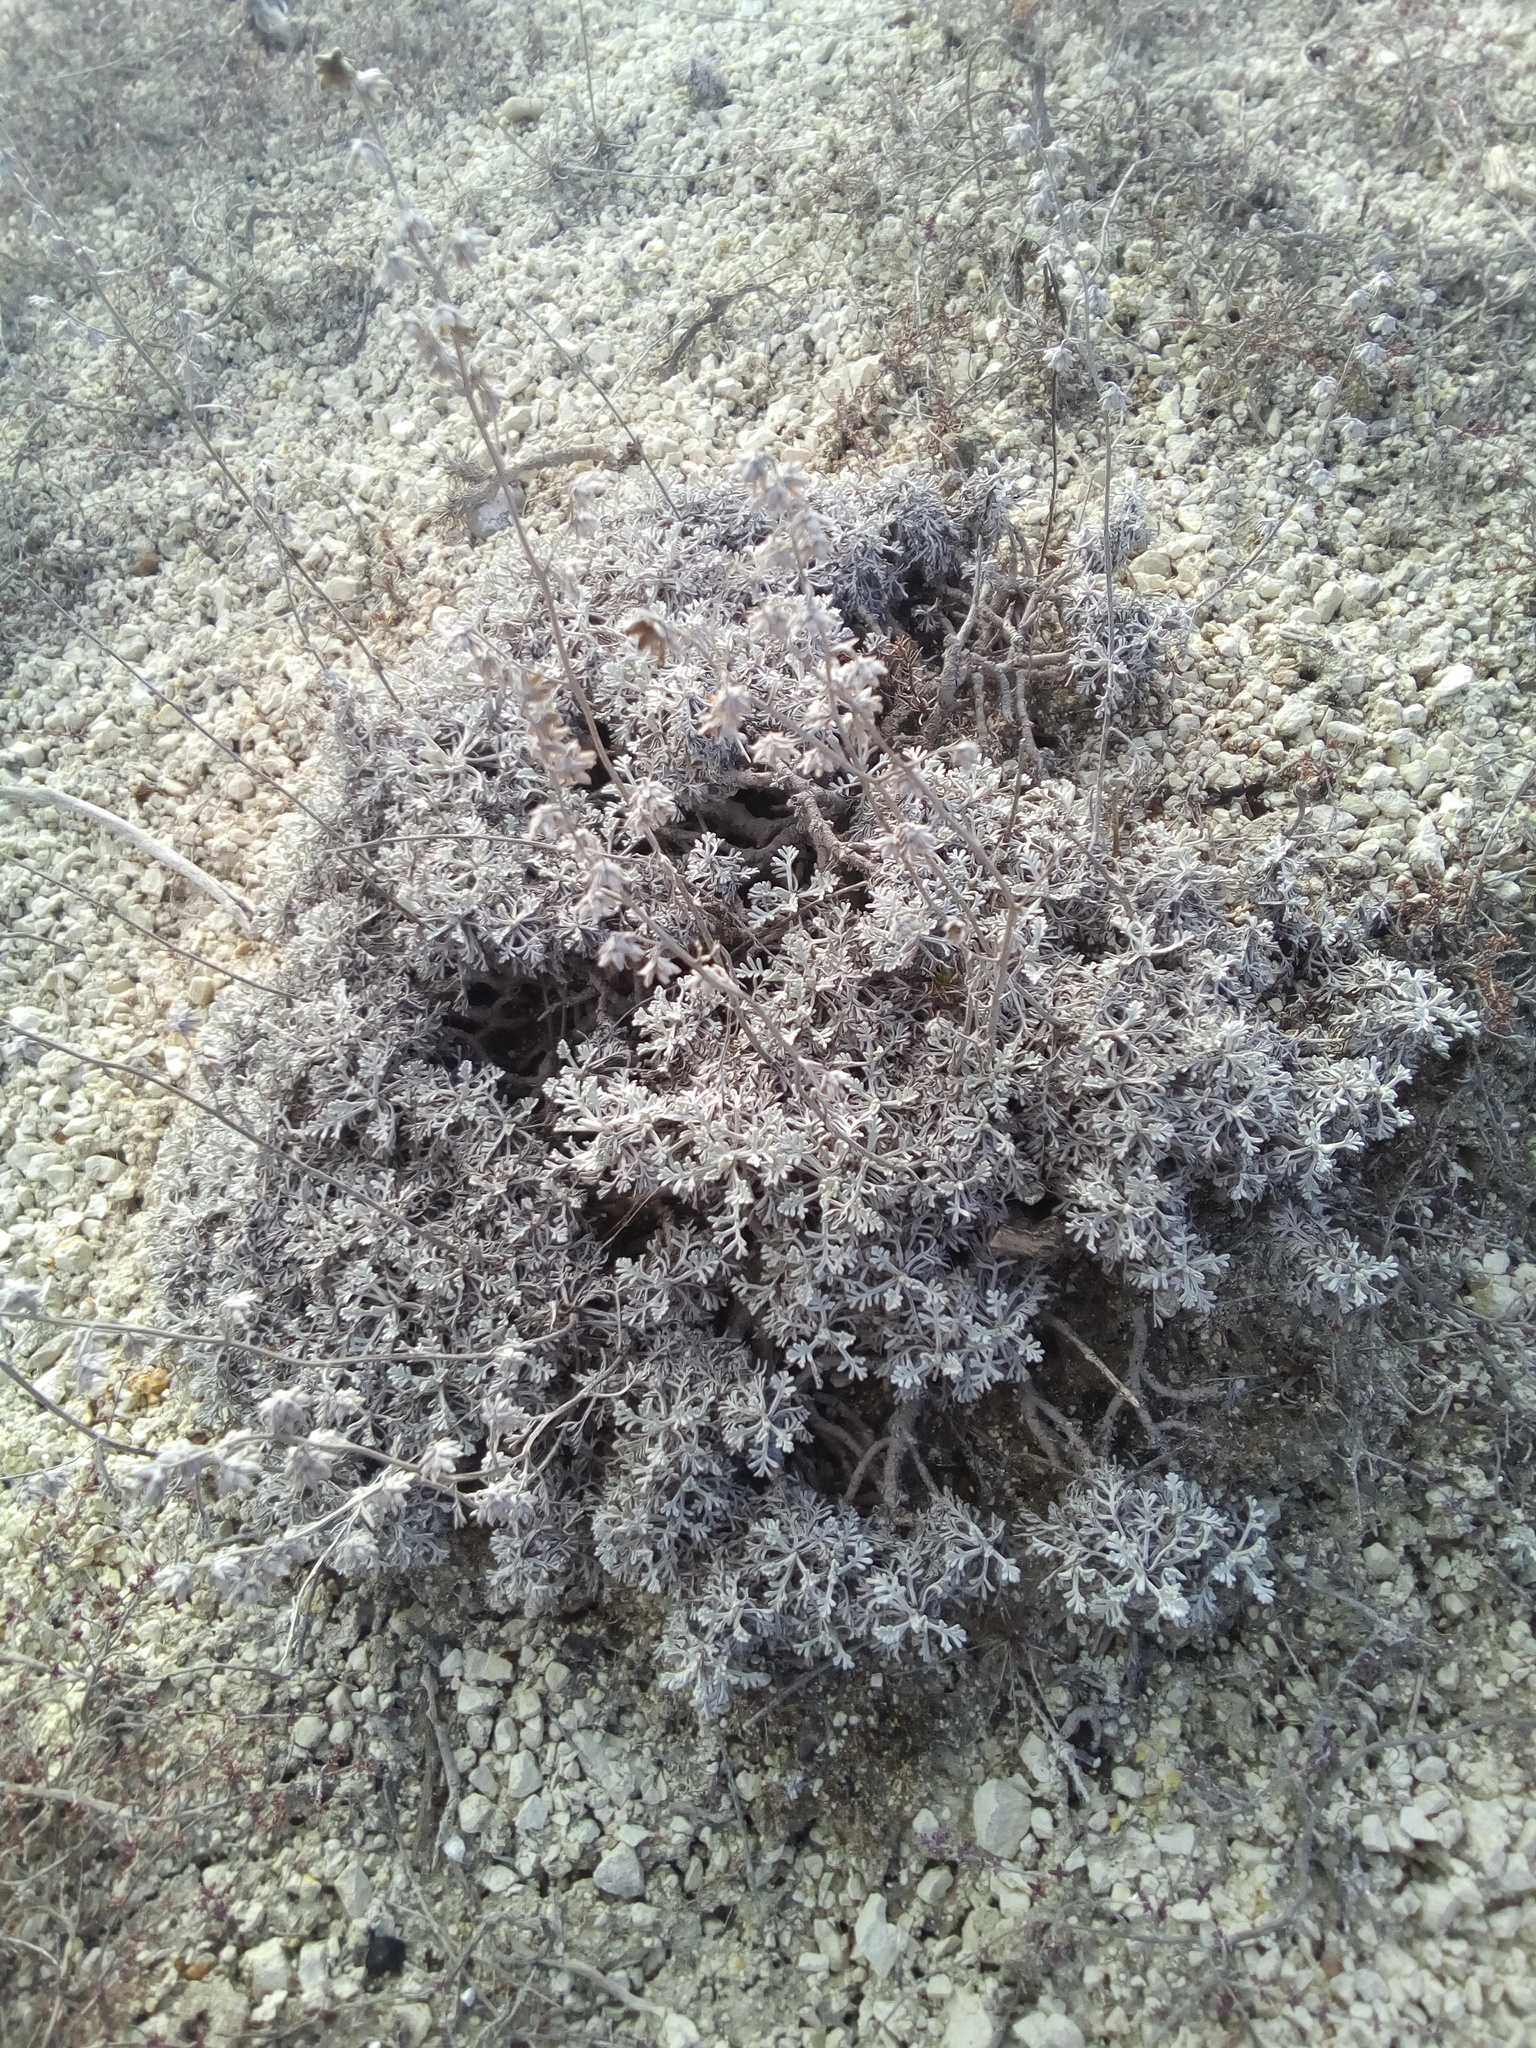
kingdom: Plantae
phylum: Tracheophyta
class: Magnoliopsida
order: Asterales
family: Asteraceae
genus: Artemisia
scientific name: Artemisia hololeuca
